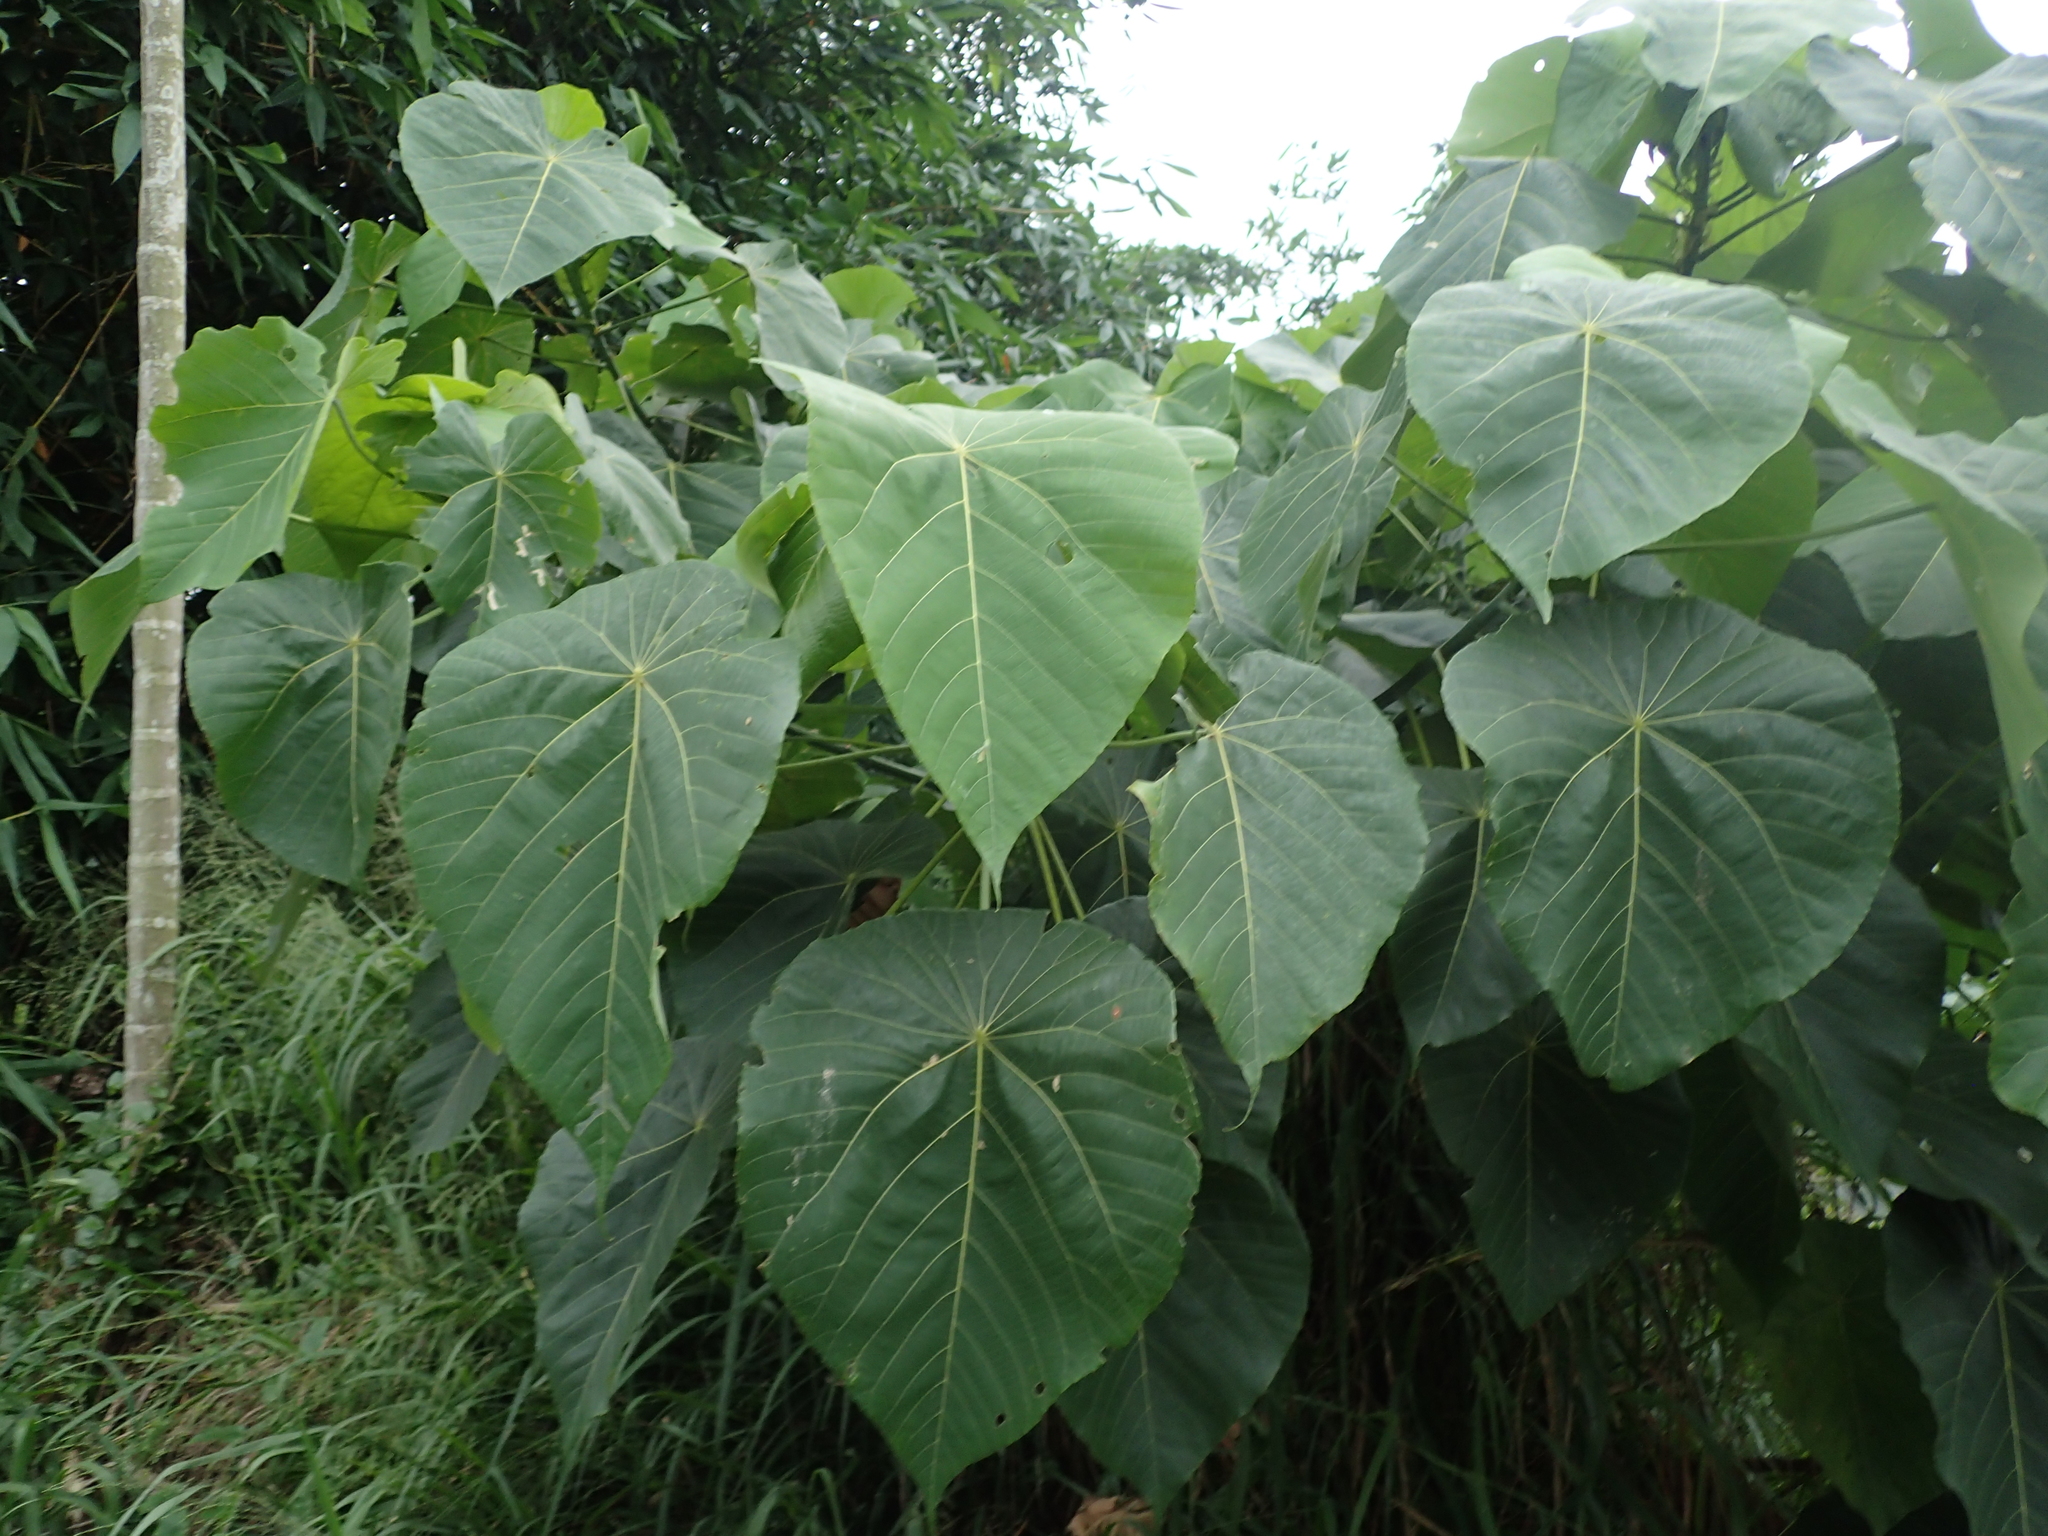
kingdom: Plantae
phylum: Tracheophyta
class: Magnoliopsida
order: Malpighiales
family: Euphorbiaceae
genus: Macaranga
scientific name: Macaranga tanarius
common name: Parasol leaf tree
